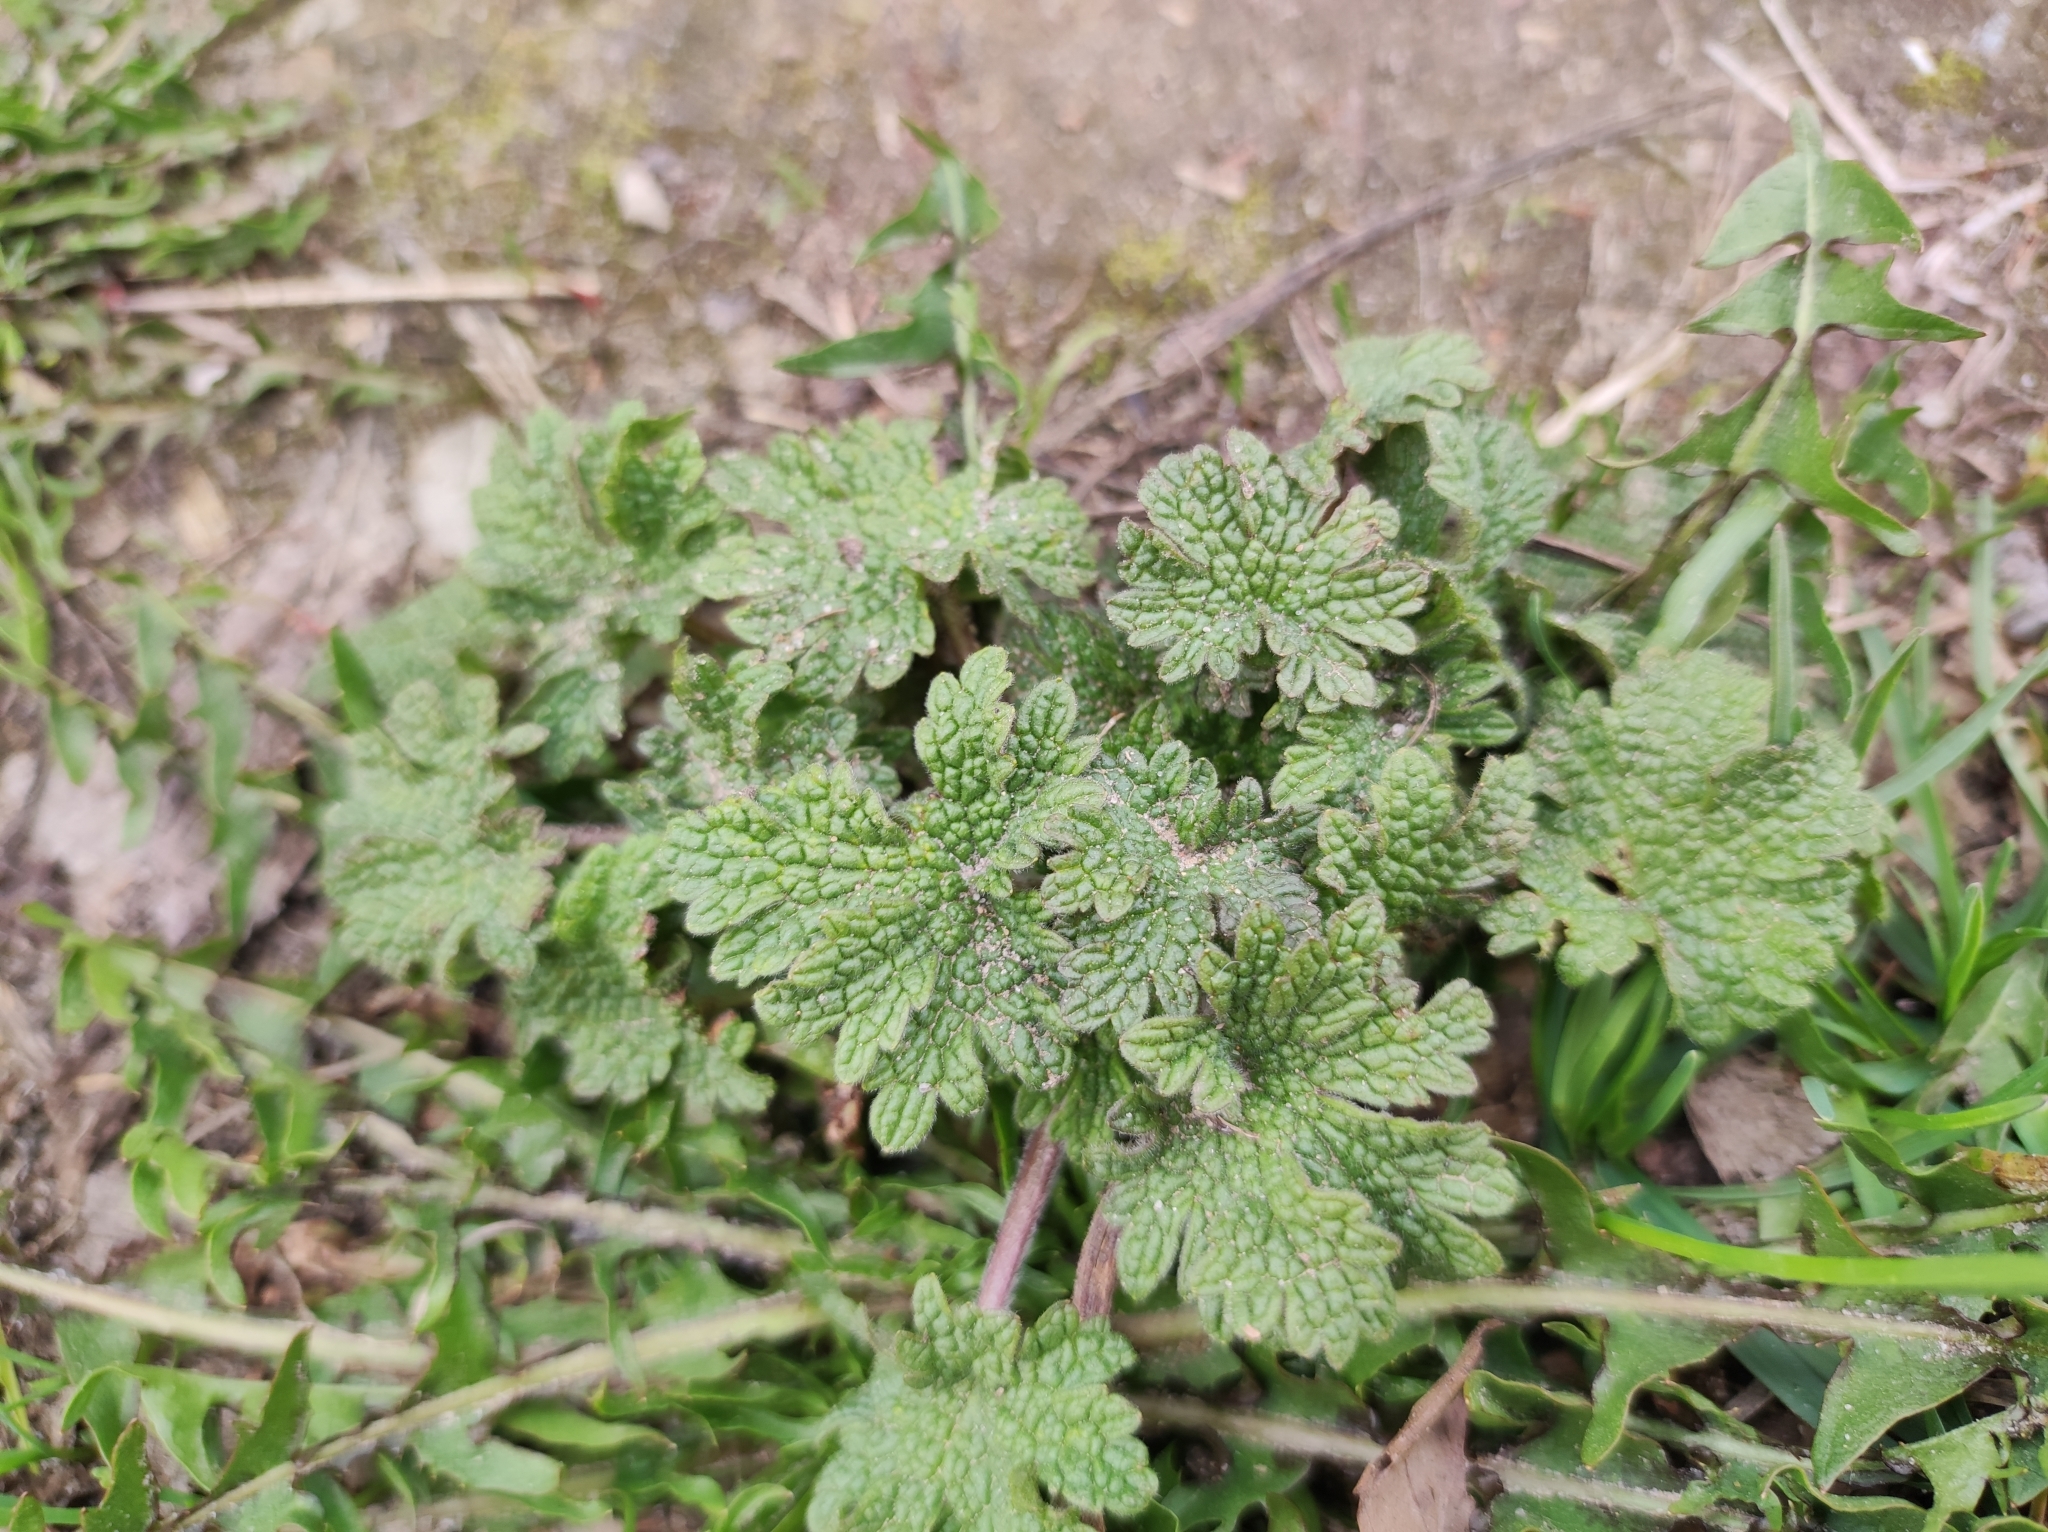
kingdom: Plantae
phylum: Tracheophyta
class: Magnoliopsida
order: Lamiales
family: Lamiaceae
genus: Leonurus
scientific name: Leonurus quinquelobatus
